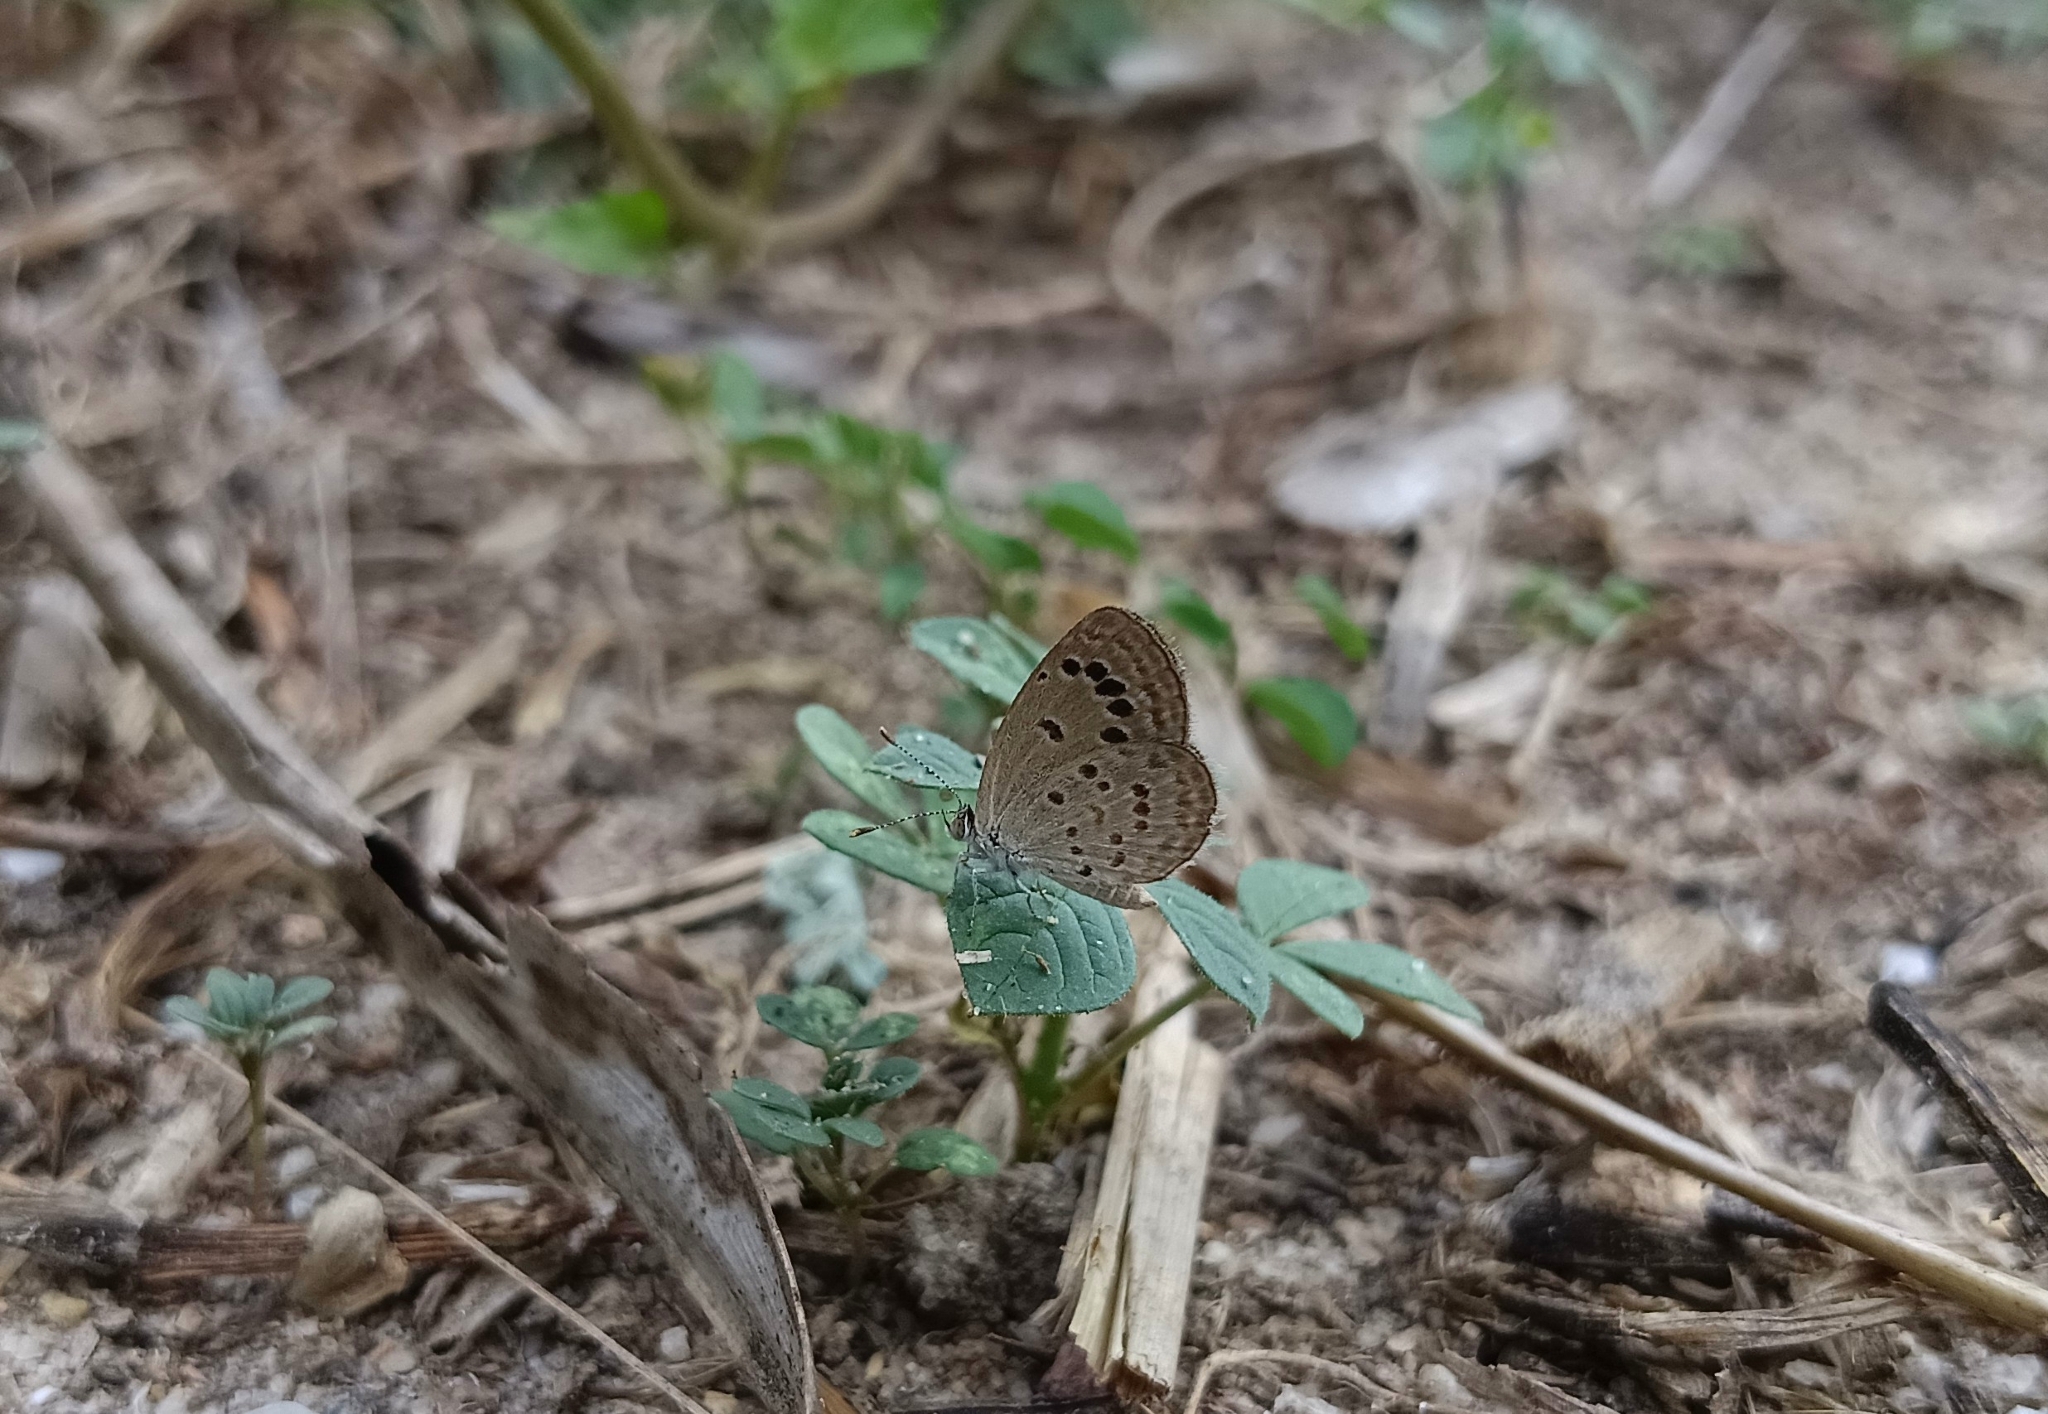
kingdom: Animalia
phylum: Arthropoda
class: Insecta
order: Lepidoptera
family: Lycaenidae
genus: Zizina
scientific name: Zizina otis
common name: Lesser grass blue
